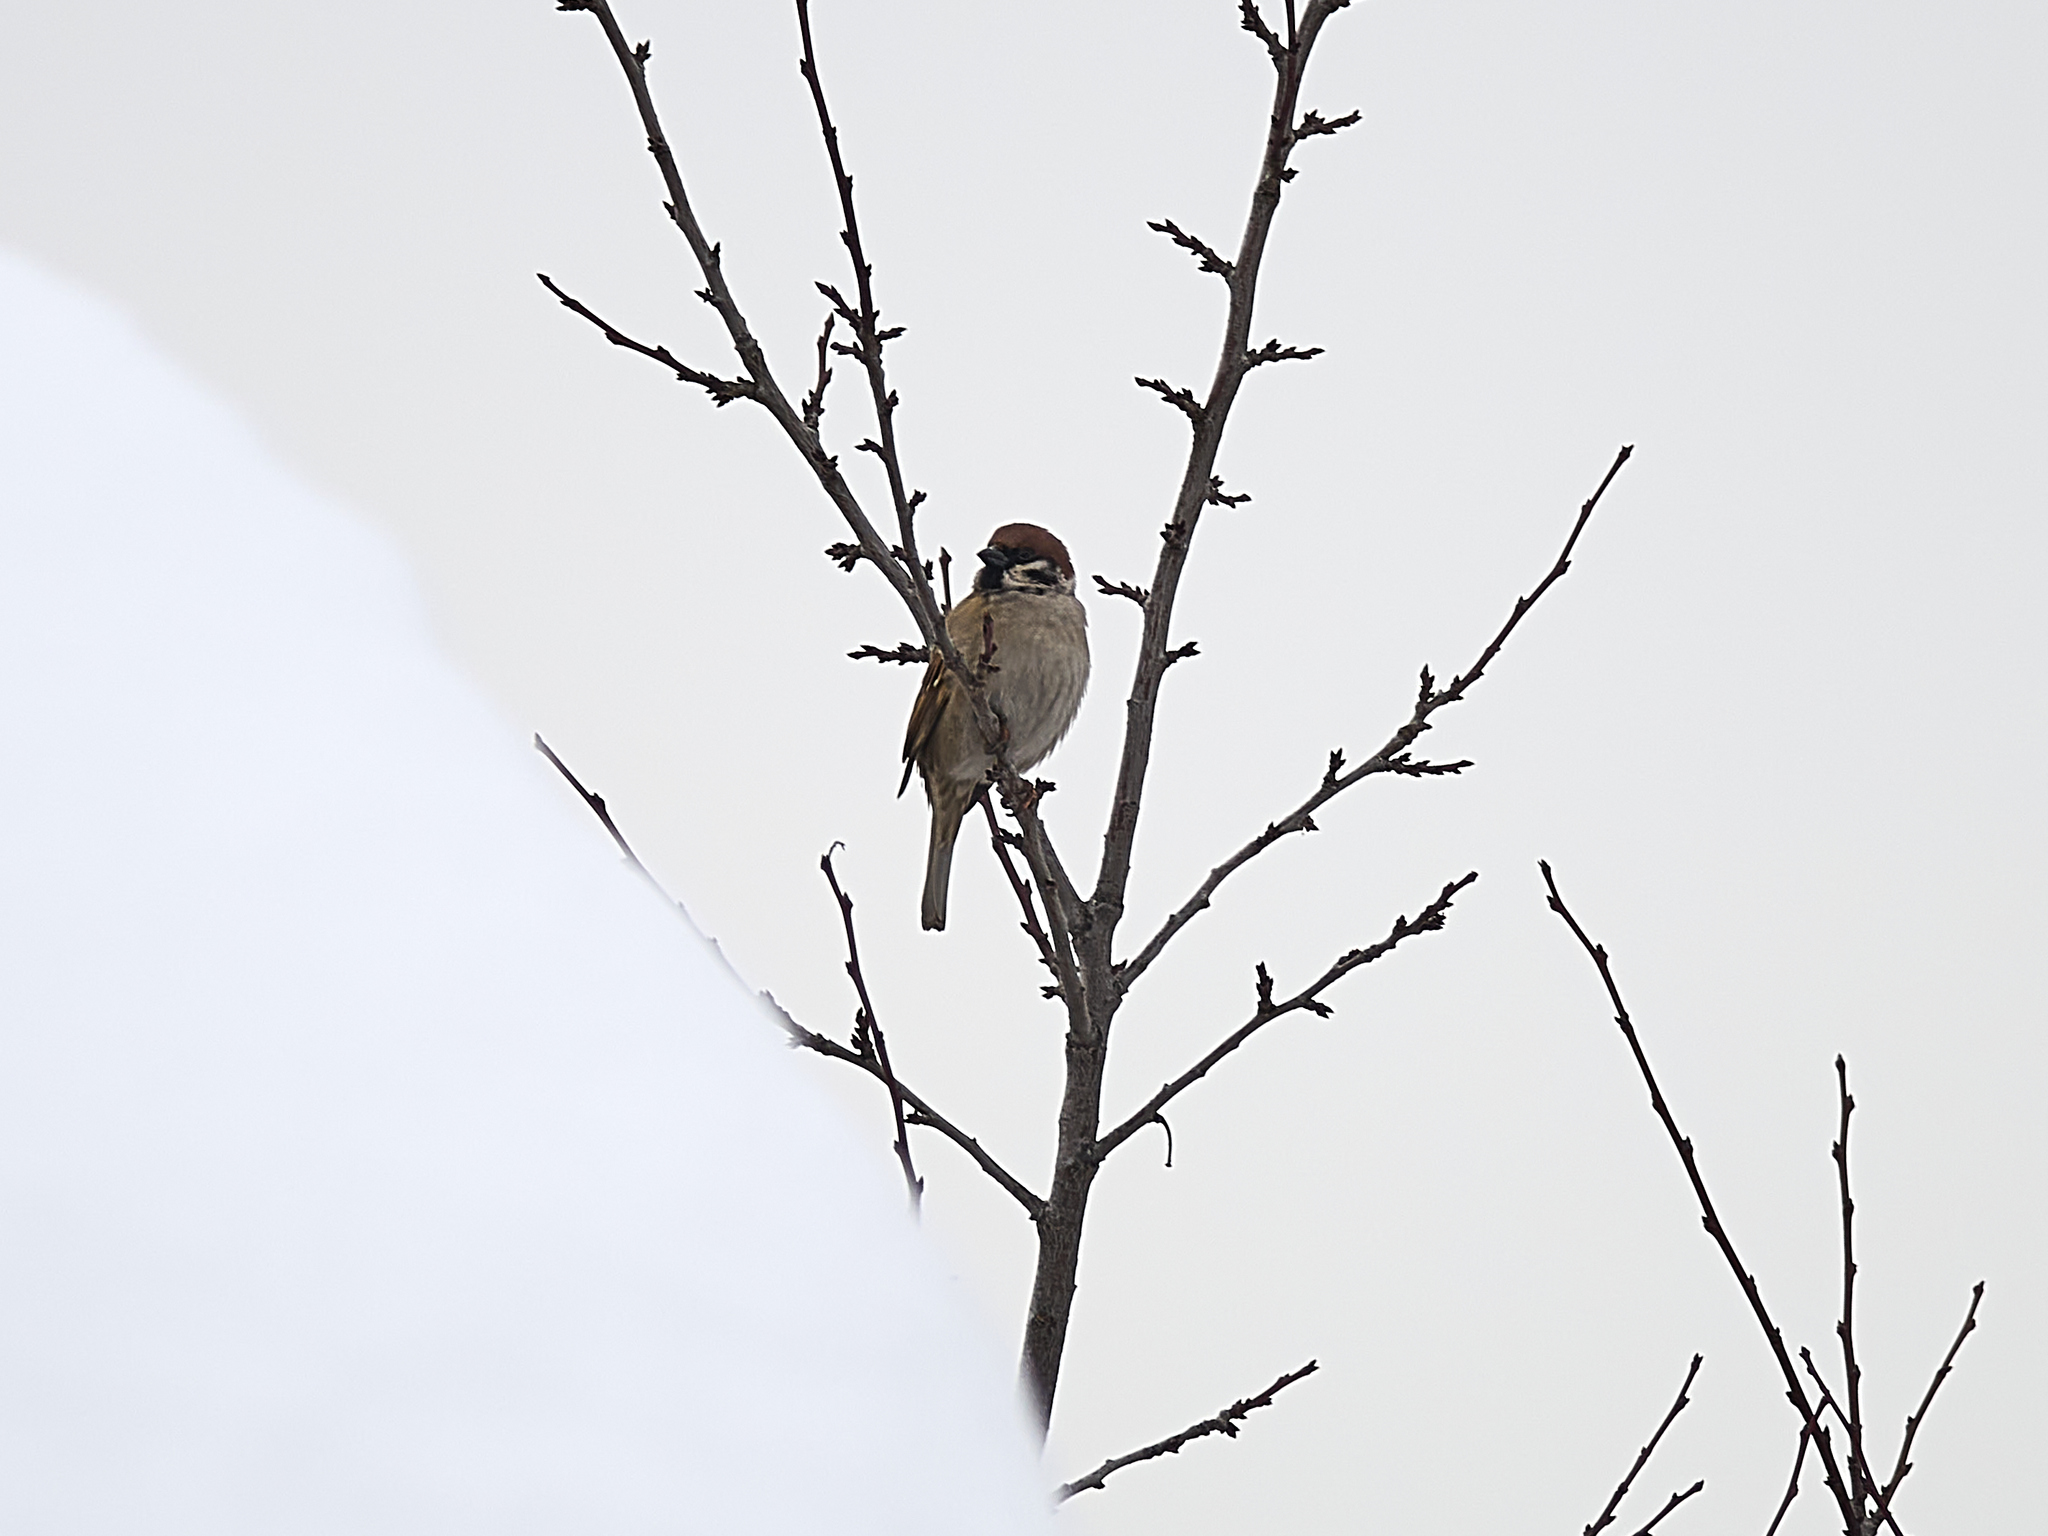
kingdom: Animalia
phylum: Chordata
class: Aves
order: Passeriformes
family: Passeridae
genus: Passer
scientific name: Passer montanus
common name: Eurasian tree sparrow
